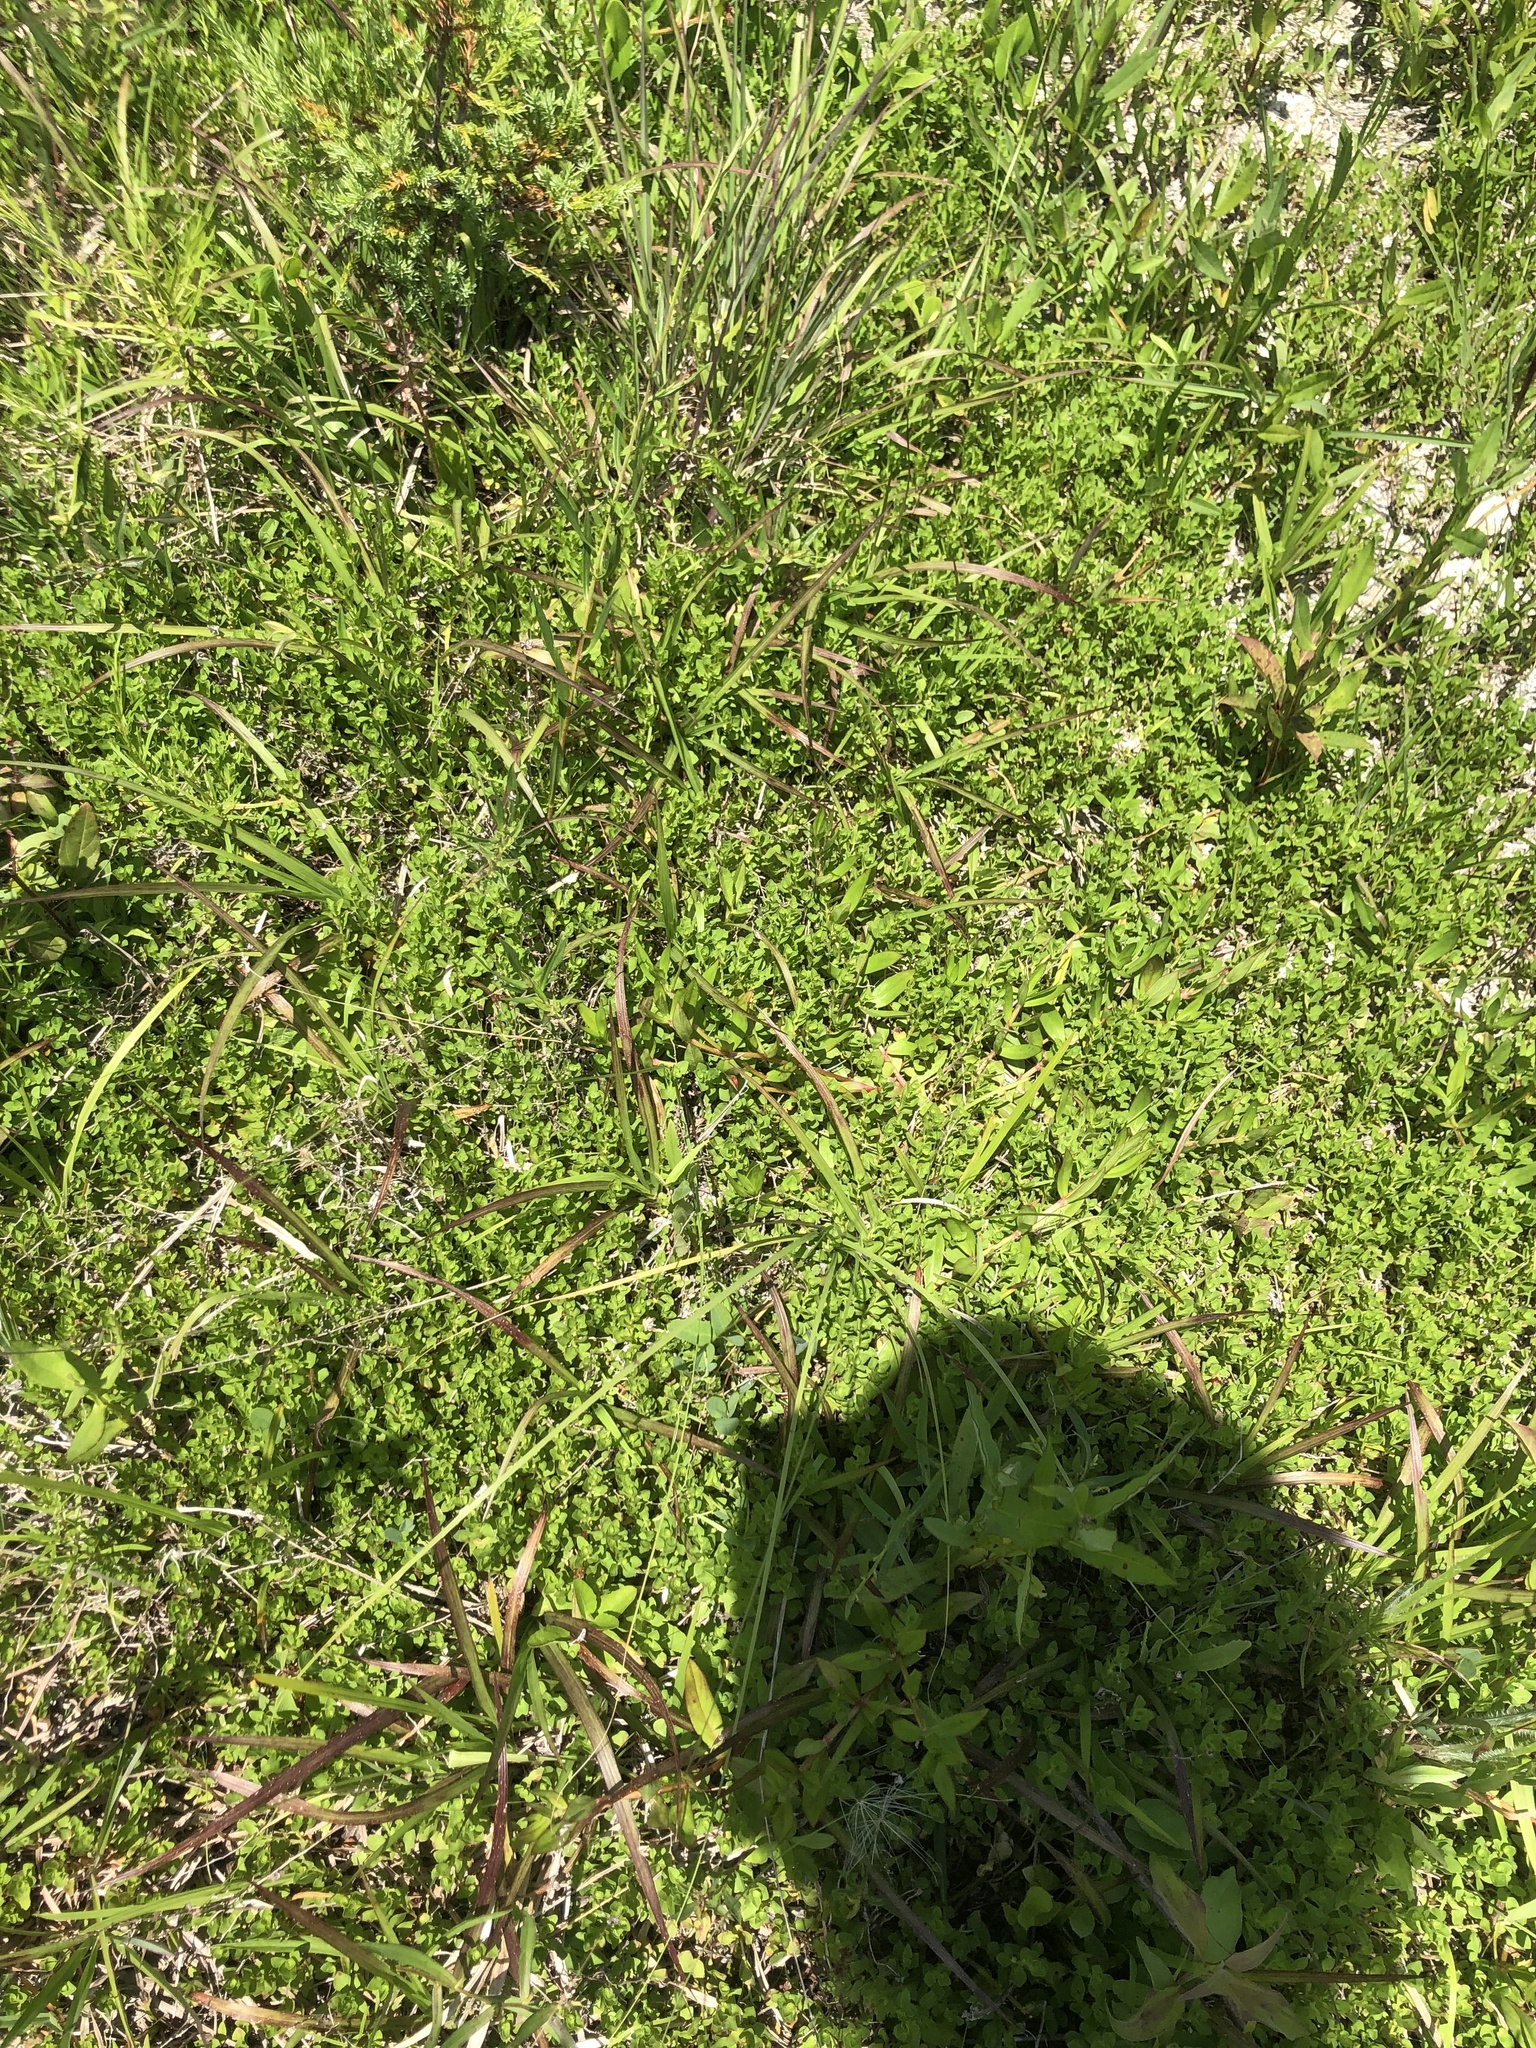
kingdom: Plantae
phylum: Tracheophyta
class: Magnoliopsida
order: Myrtales
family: Onagraceae
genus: Ludwigia
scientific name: Ludwigia microcarpa
